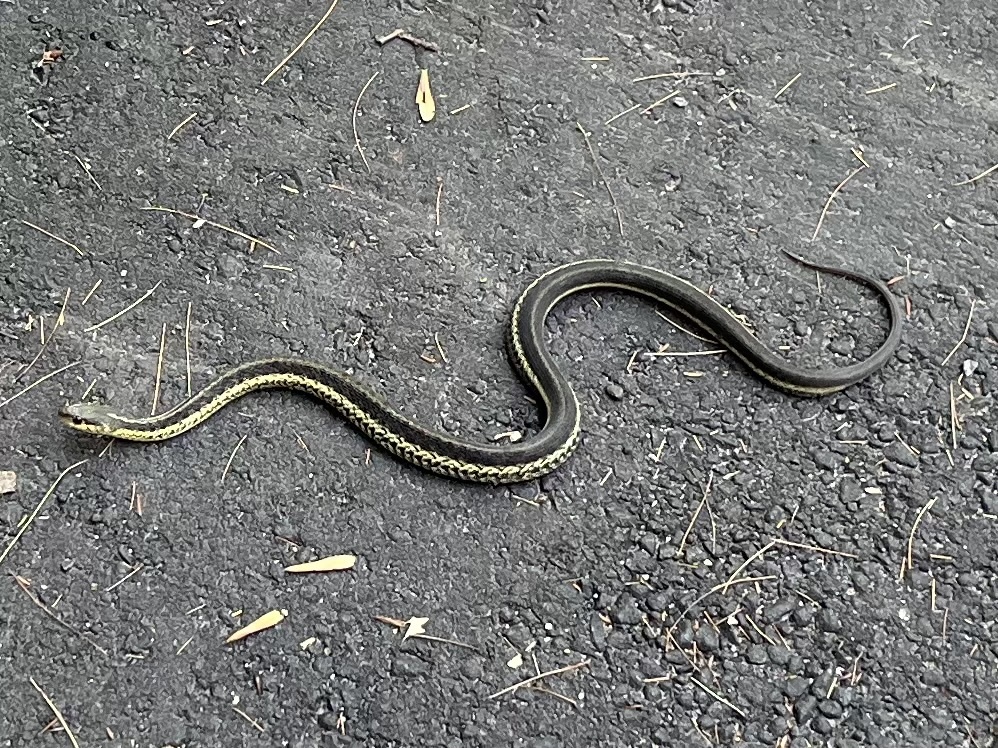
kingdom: Animalia
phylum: Chordata
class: Squamata
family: Colubridae
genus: Thamnophis
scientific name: Thamnophis sirtalis
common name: Common garter snake
